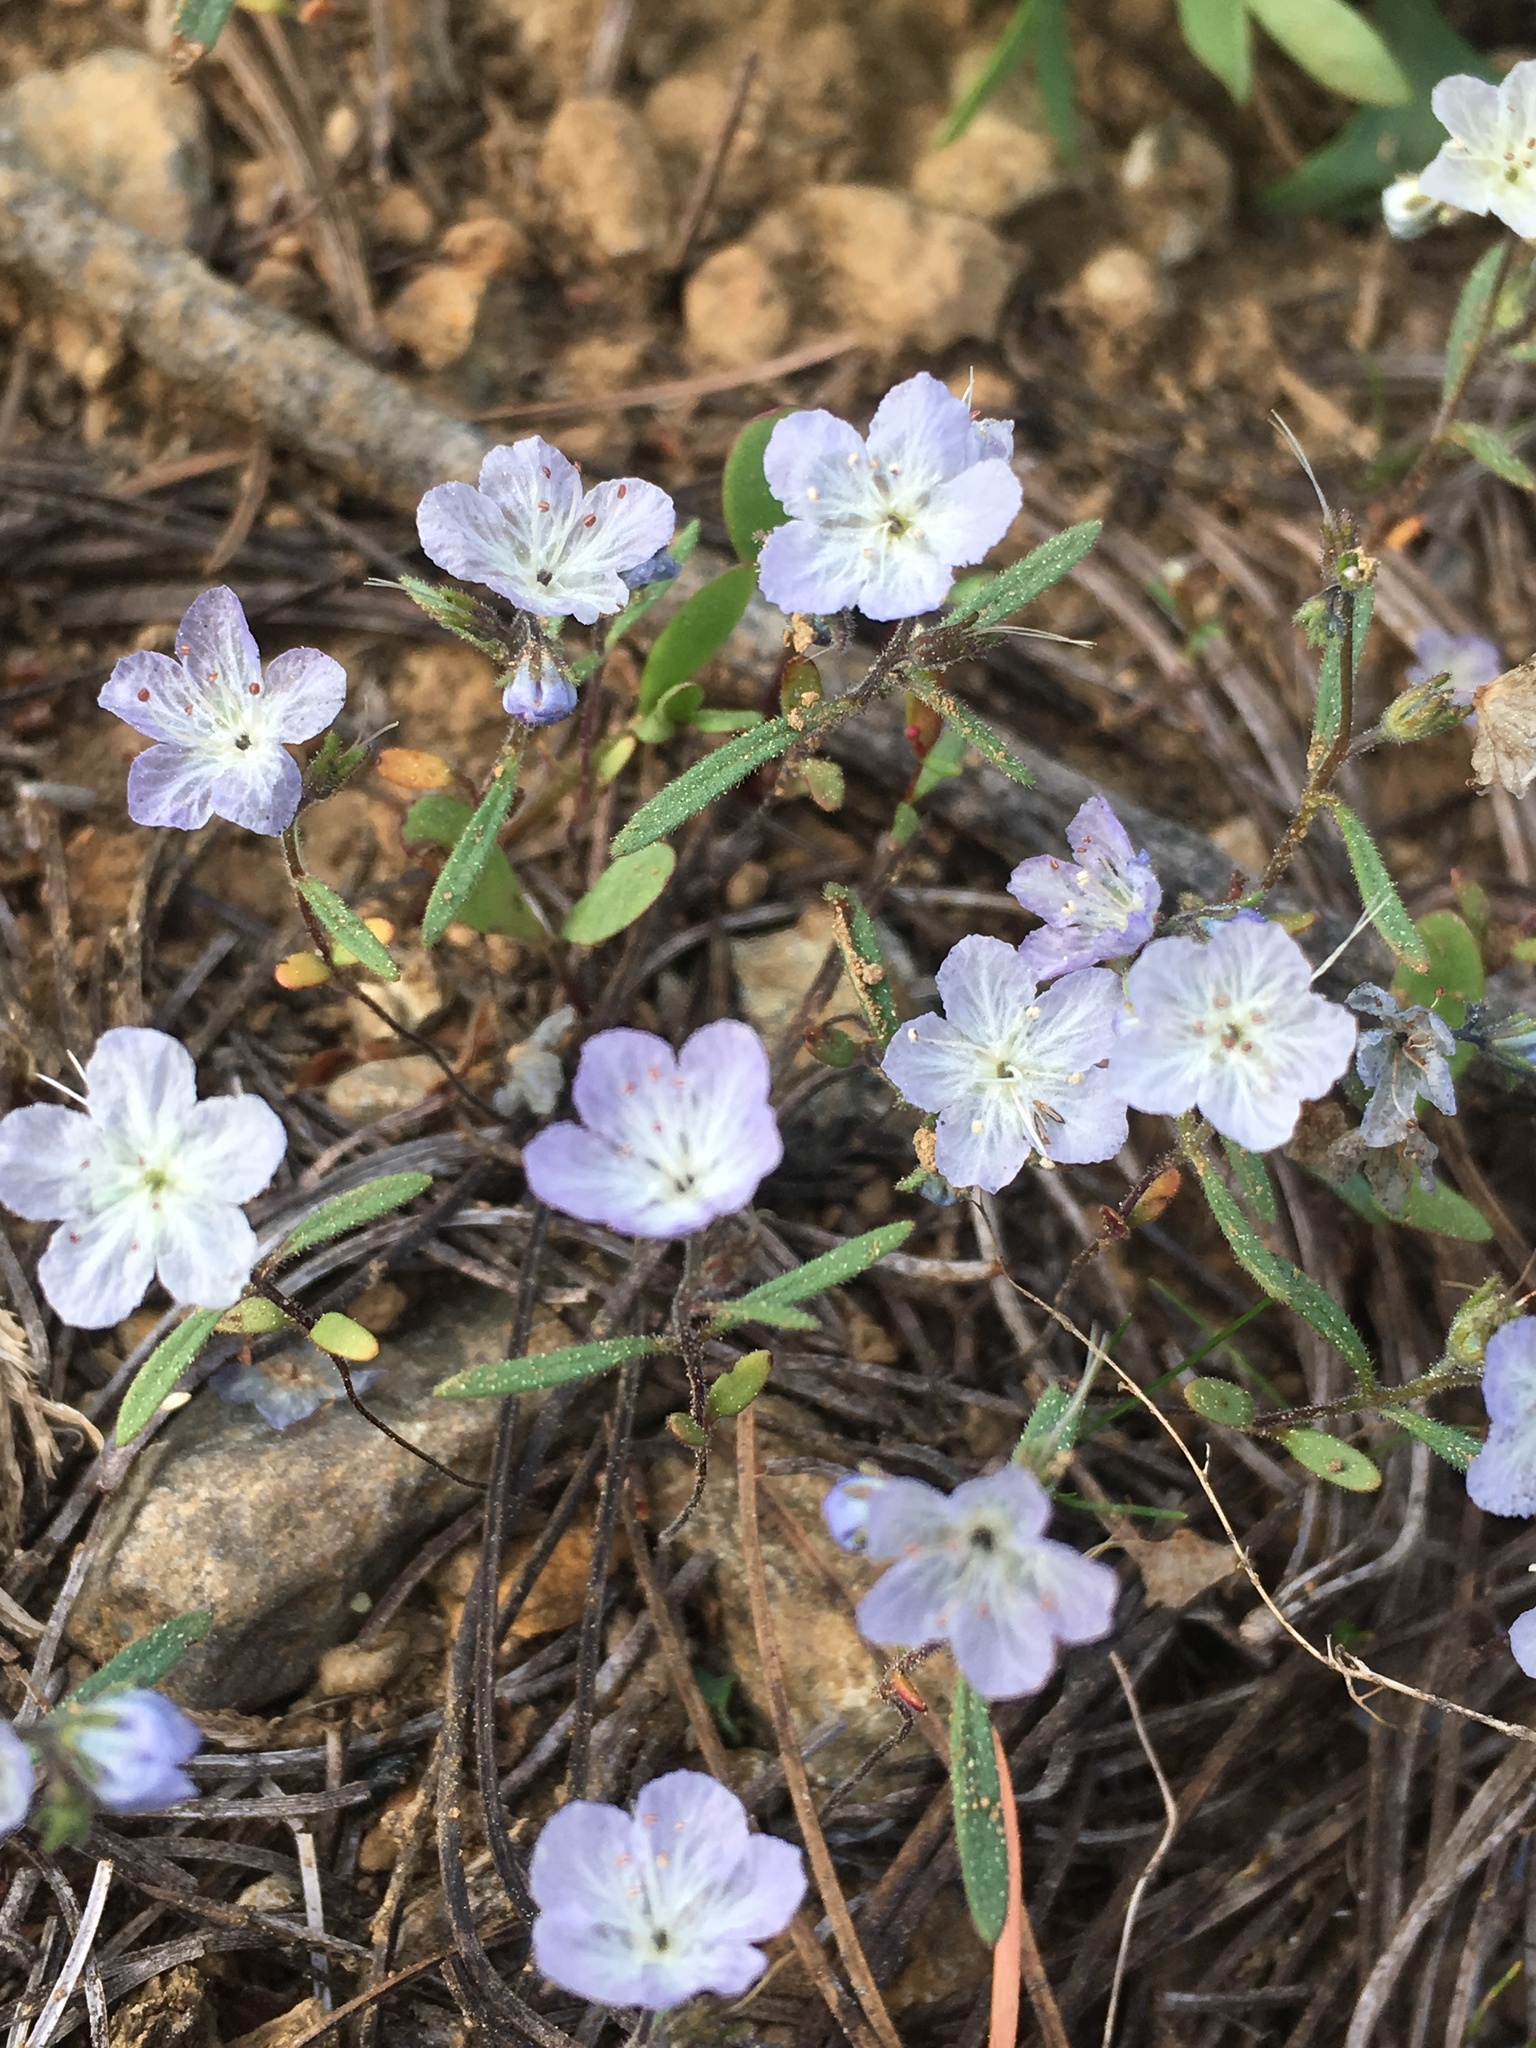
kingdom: Plantae
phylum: Tracheophyta
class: Magnoliopsida
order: Boraginales
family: Hydrophyllaceae
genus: Phacelia
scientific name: Phacelia pringlei
